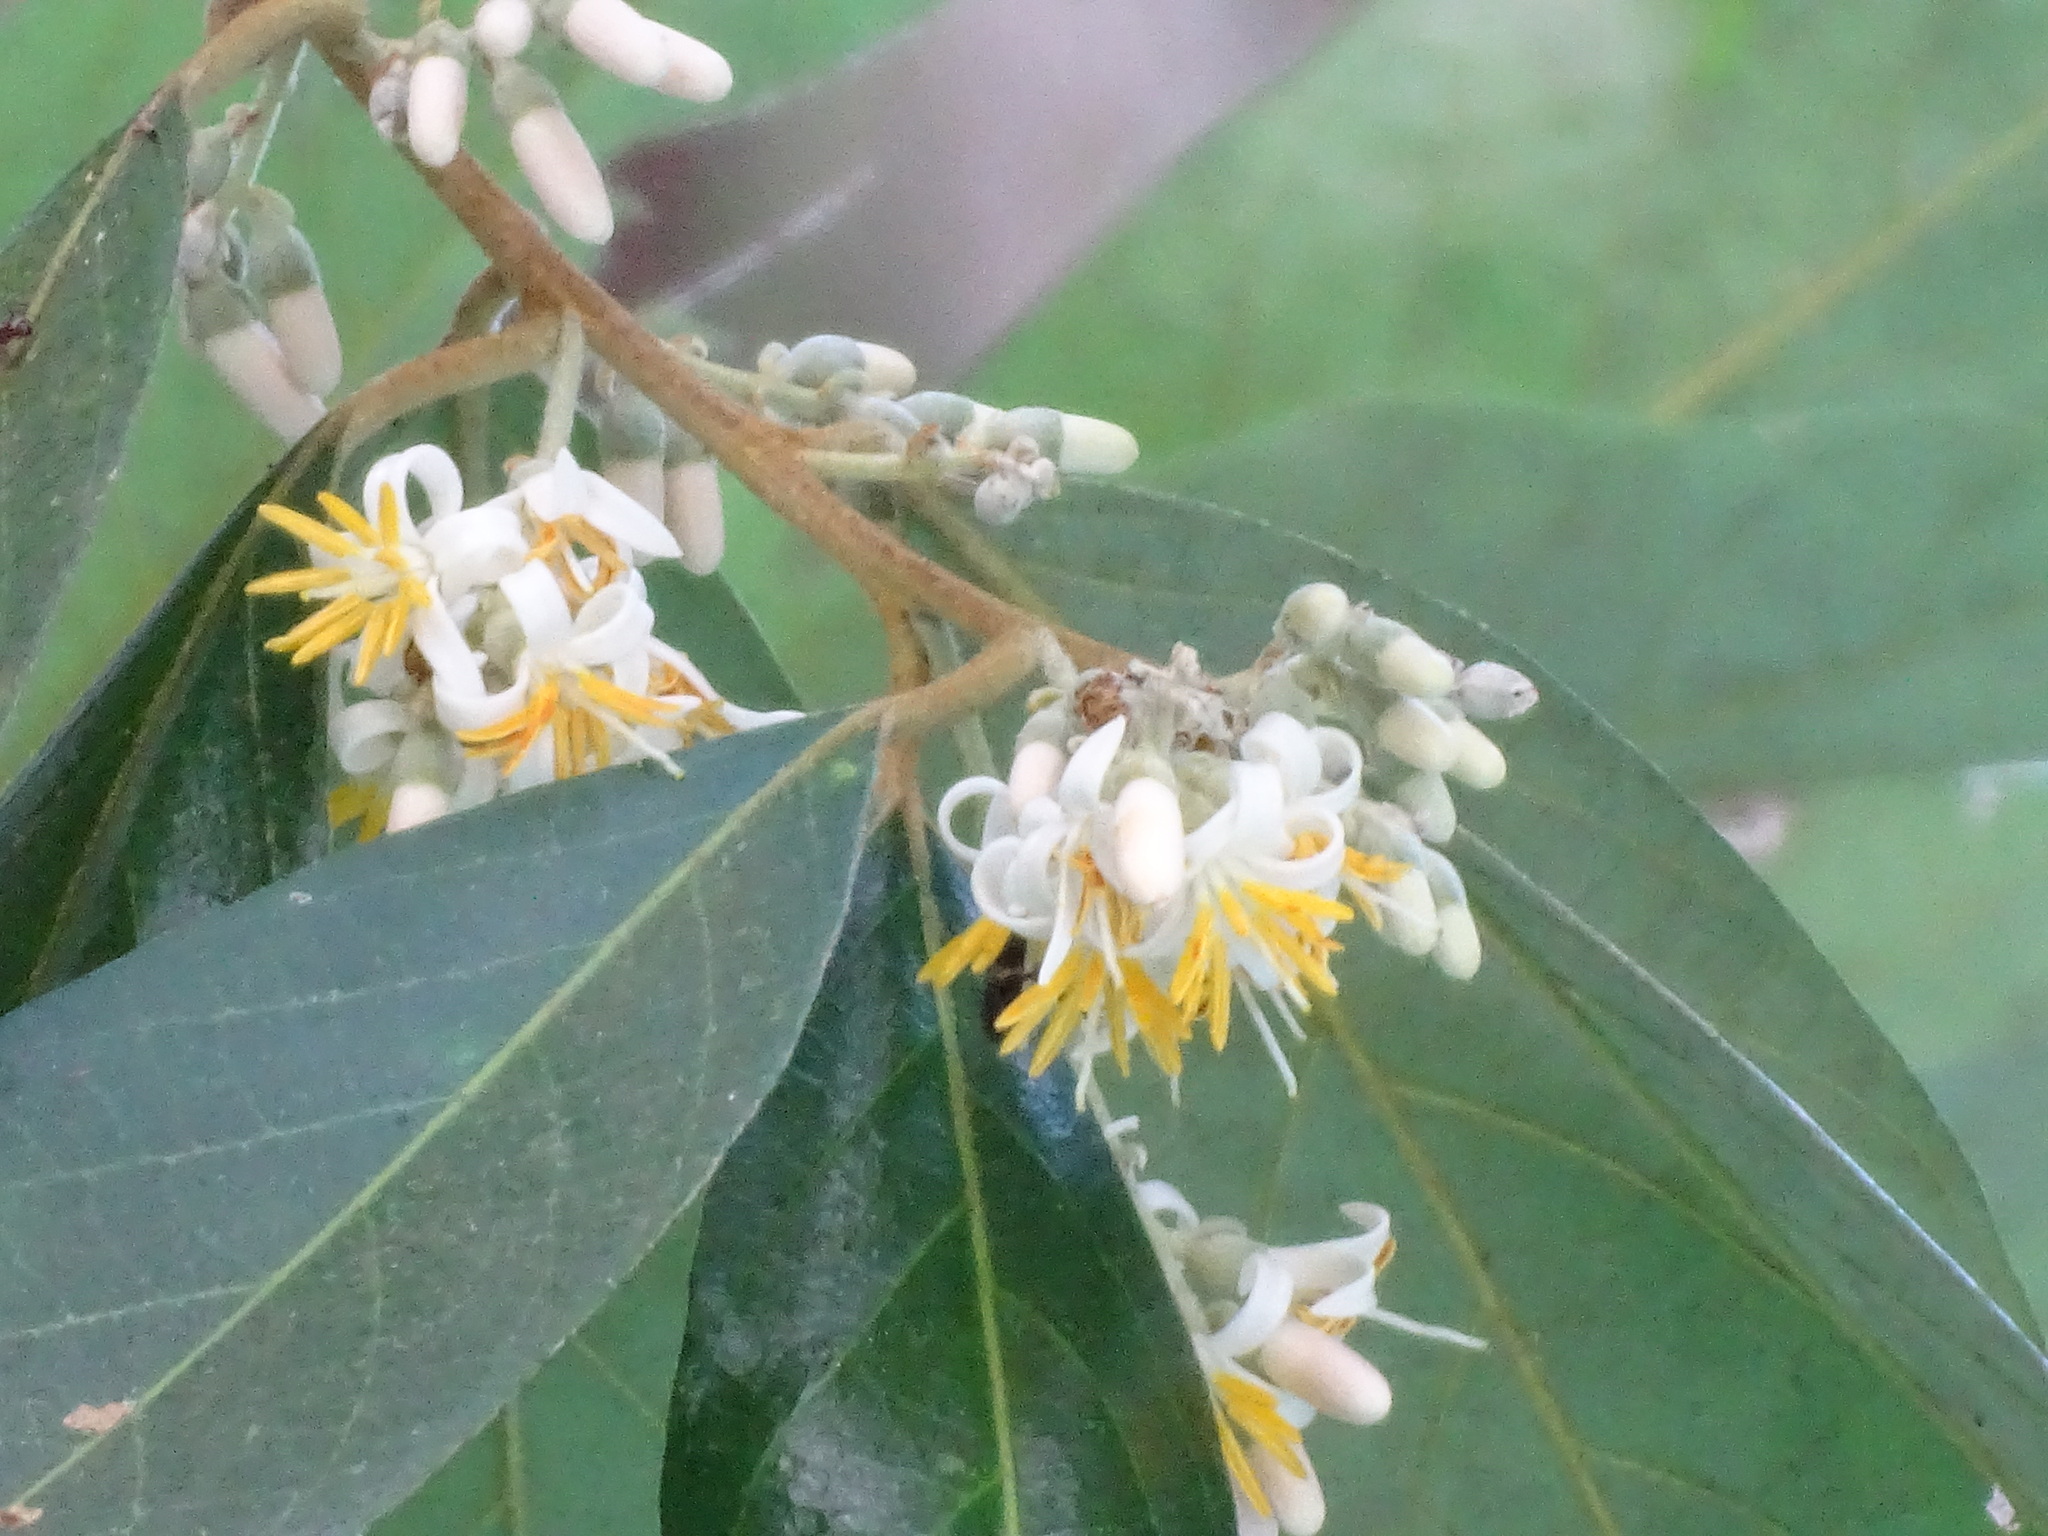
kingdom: Plantae
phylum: Tracheophyta
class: Magnoliopsida
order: Ericales
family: Styracaceae
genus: Styrax
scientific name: Styrax argenteus
